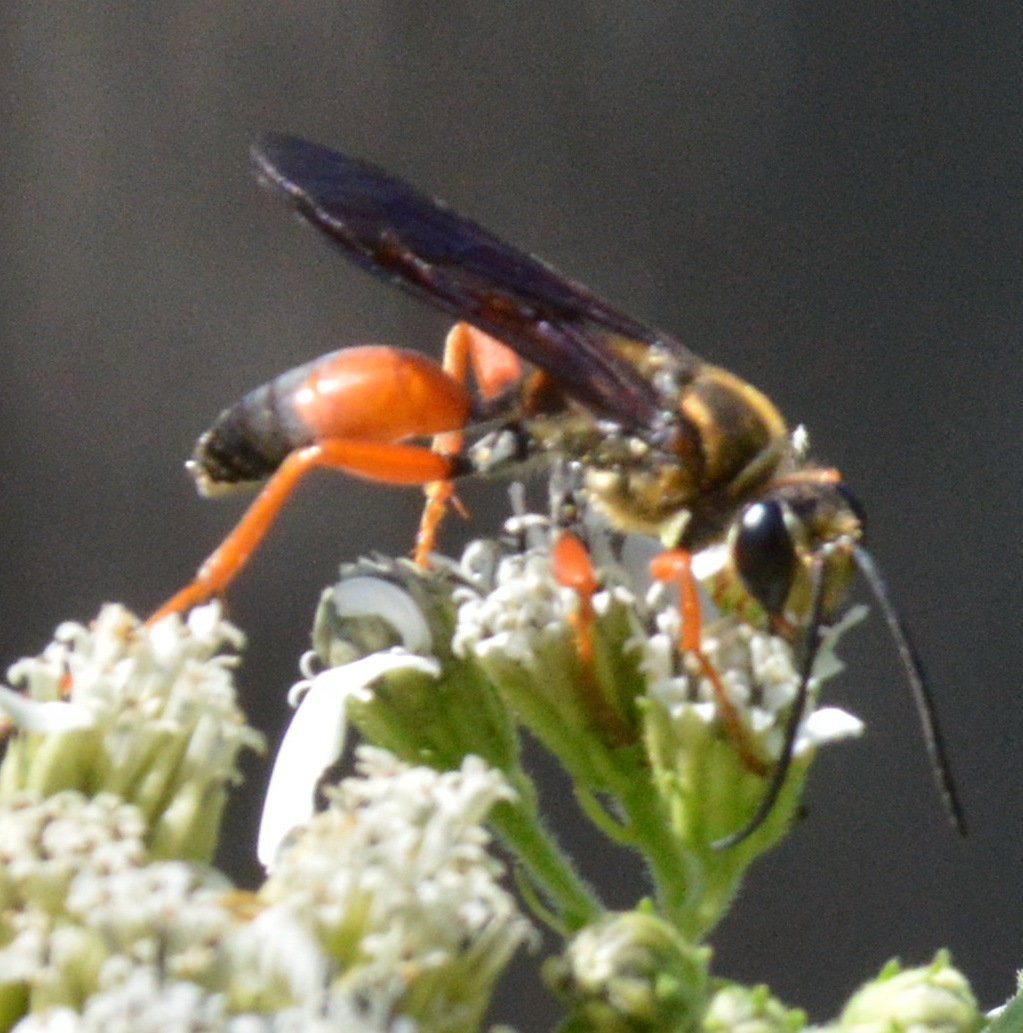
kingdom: Animalia
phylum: Arthropoda
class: Insecta
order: Hymenoptera
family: Sphecidae
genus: Sphex
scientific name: Sphex ichneumoneus
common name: Great golden digger wasp
